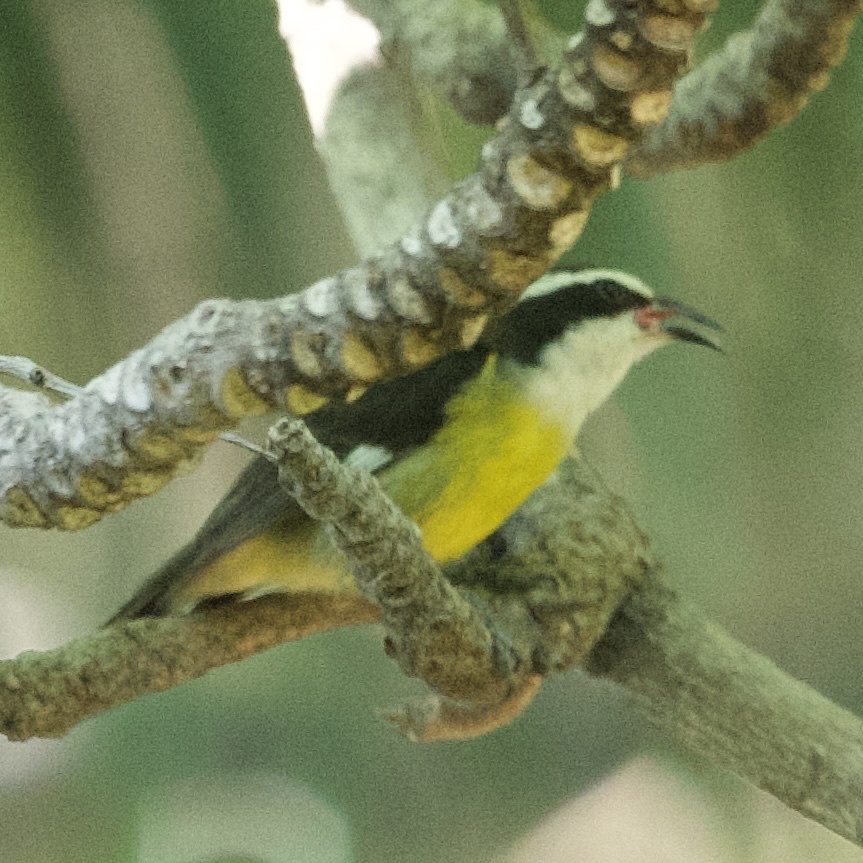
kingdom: Animalia
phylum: Chordata
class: Aves
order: Passeriformes
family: Thraupidae
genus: Coereba
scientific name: Coereba flaveola
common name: Bananaquit
